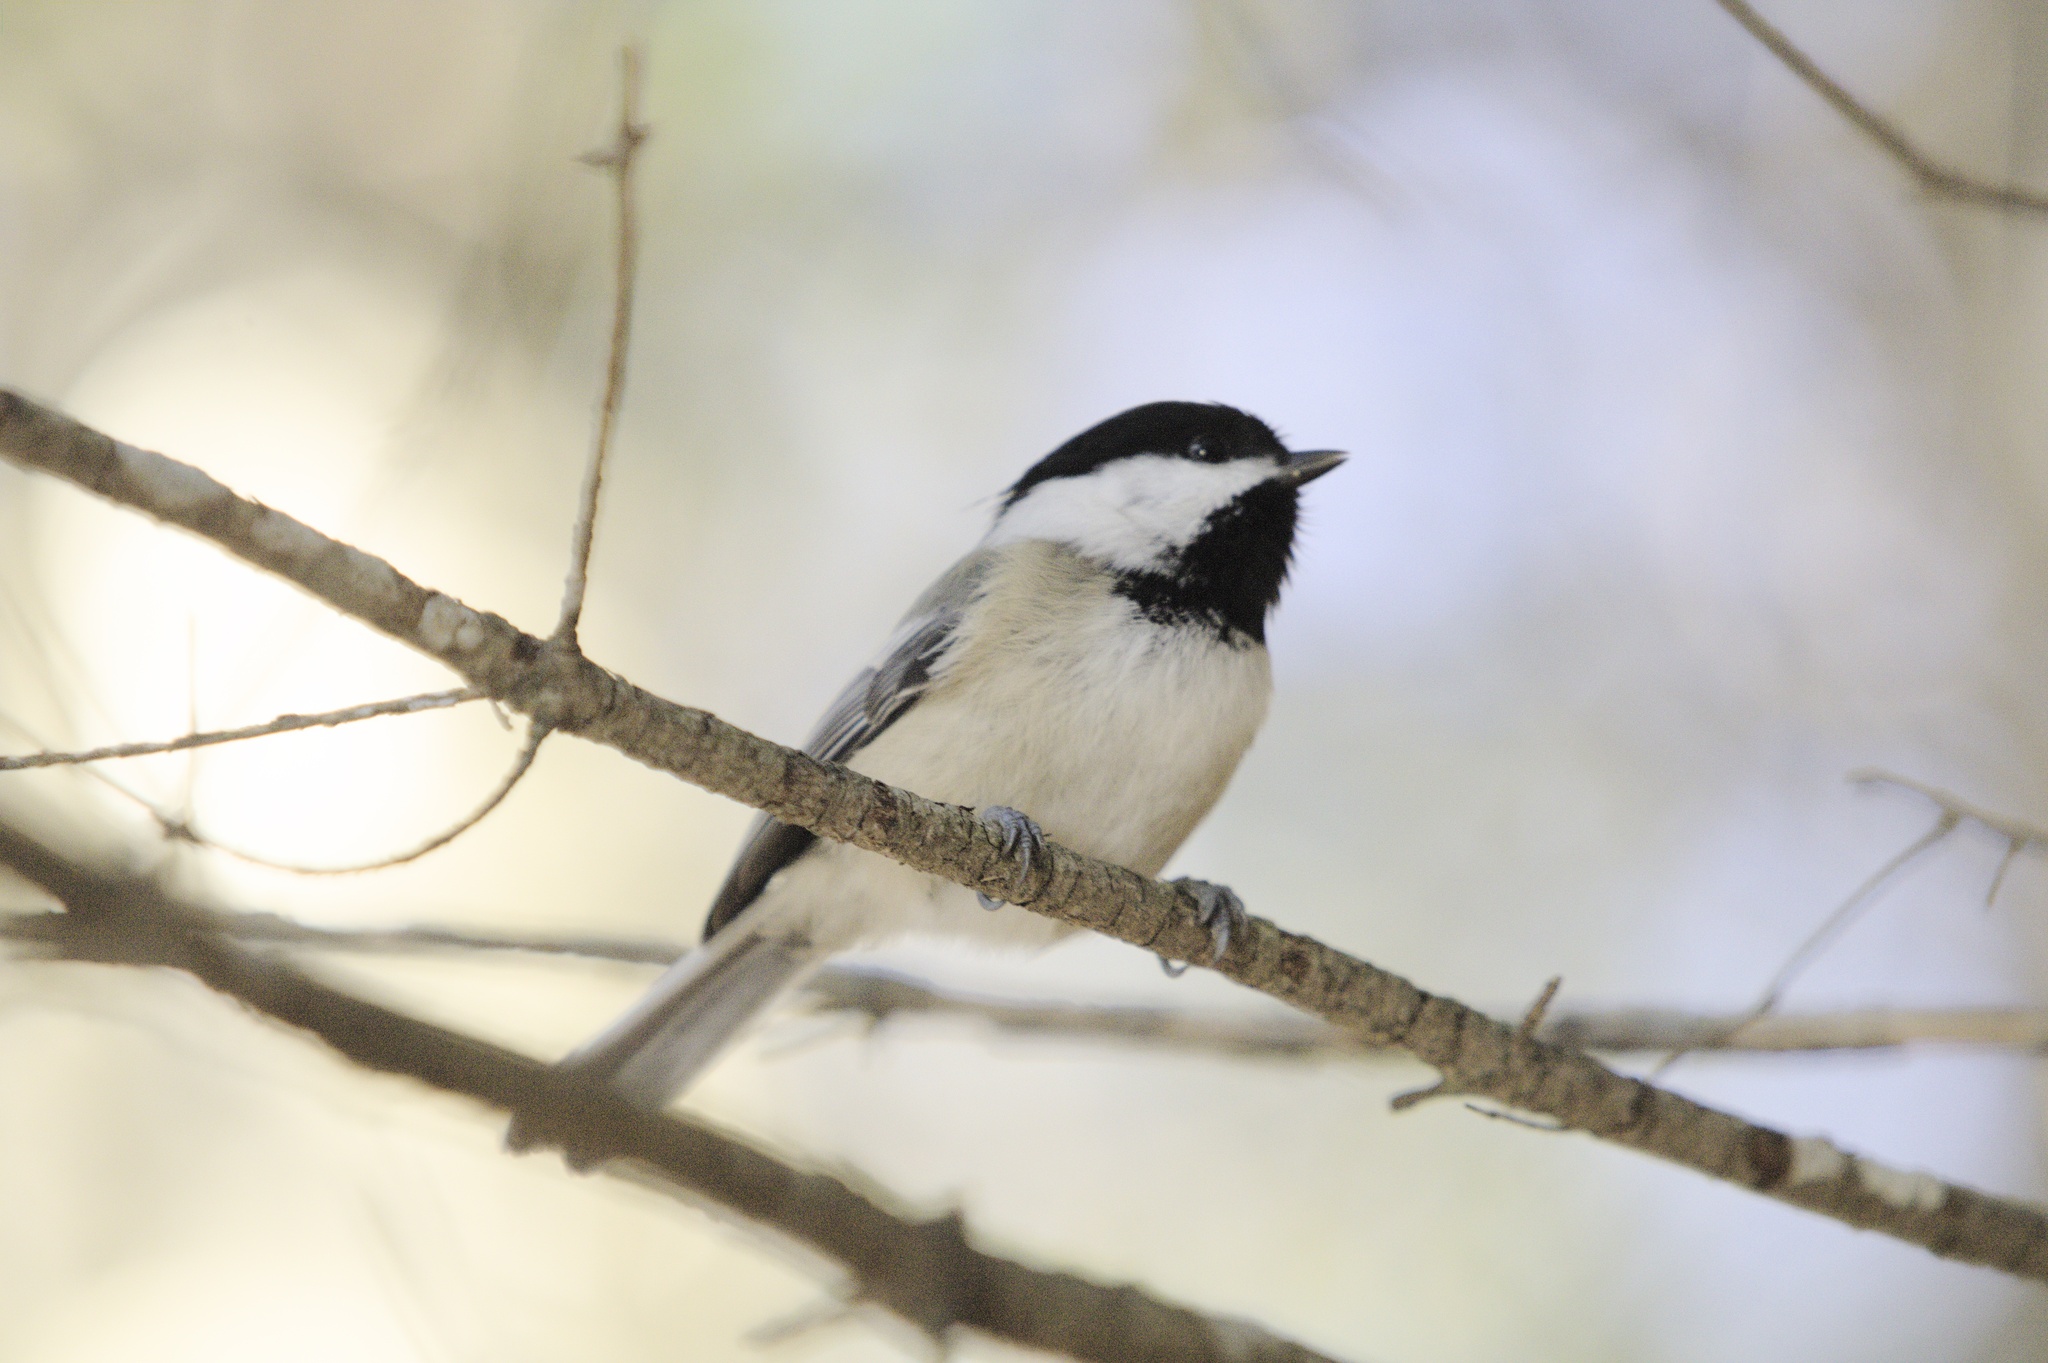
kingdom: Animalia
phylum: Chordata
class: Aves
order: Passeriformes
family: Paridae
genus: Poecile
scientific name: Poecile atricapillus
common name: Black-capped chickadee
